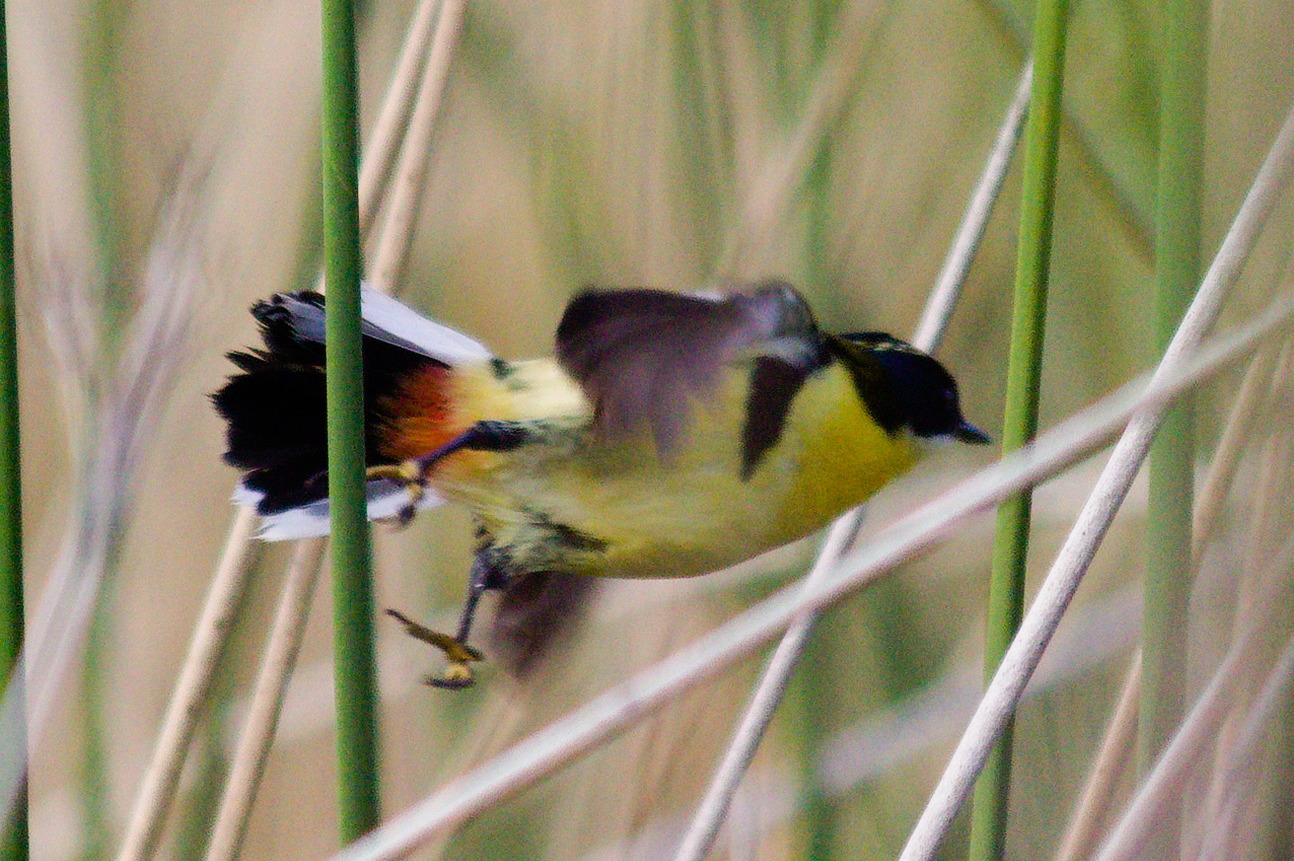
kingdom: Animalia
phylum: Chordata
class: Aves
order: Passeriformes
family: Tyrannidae
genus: Tachuris
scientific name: Tachuris rubrigastra
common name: Many-colored rush tyrant
